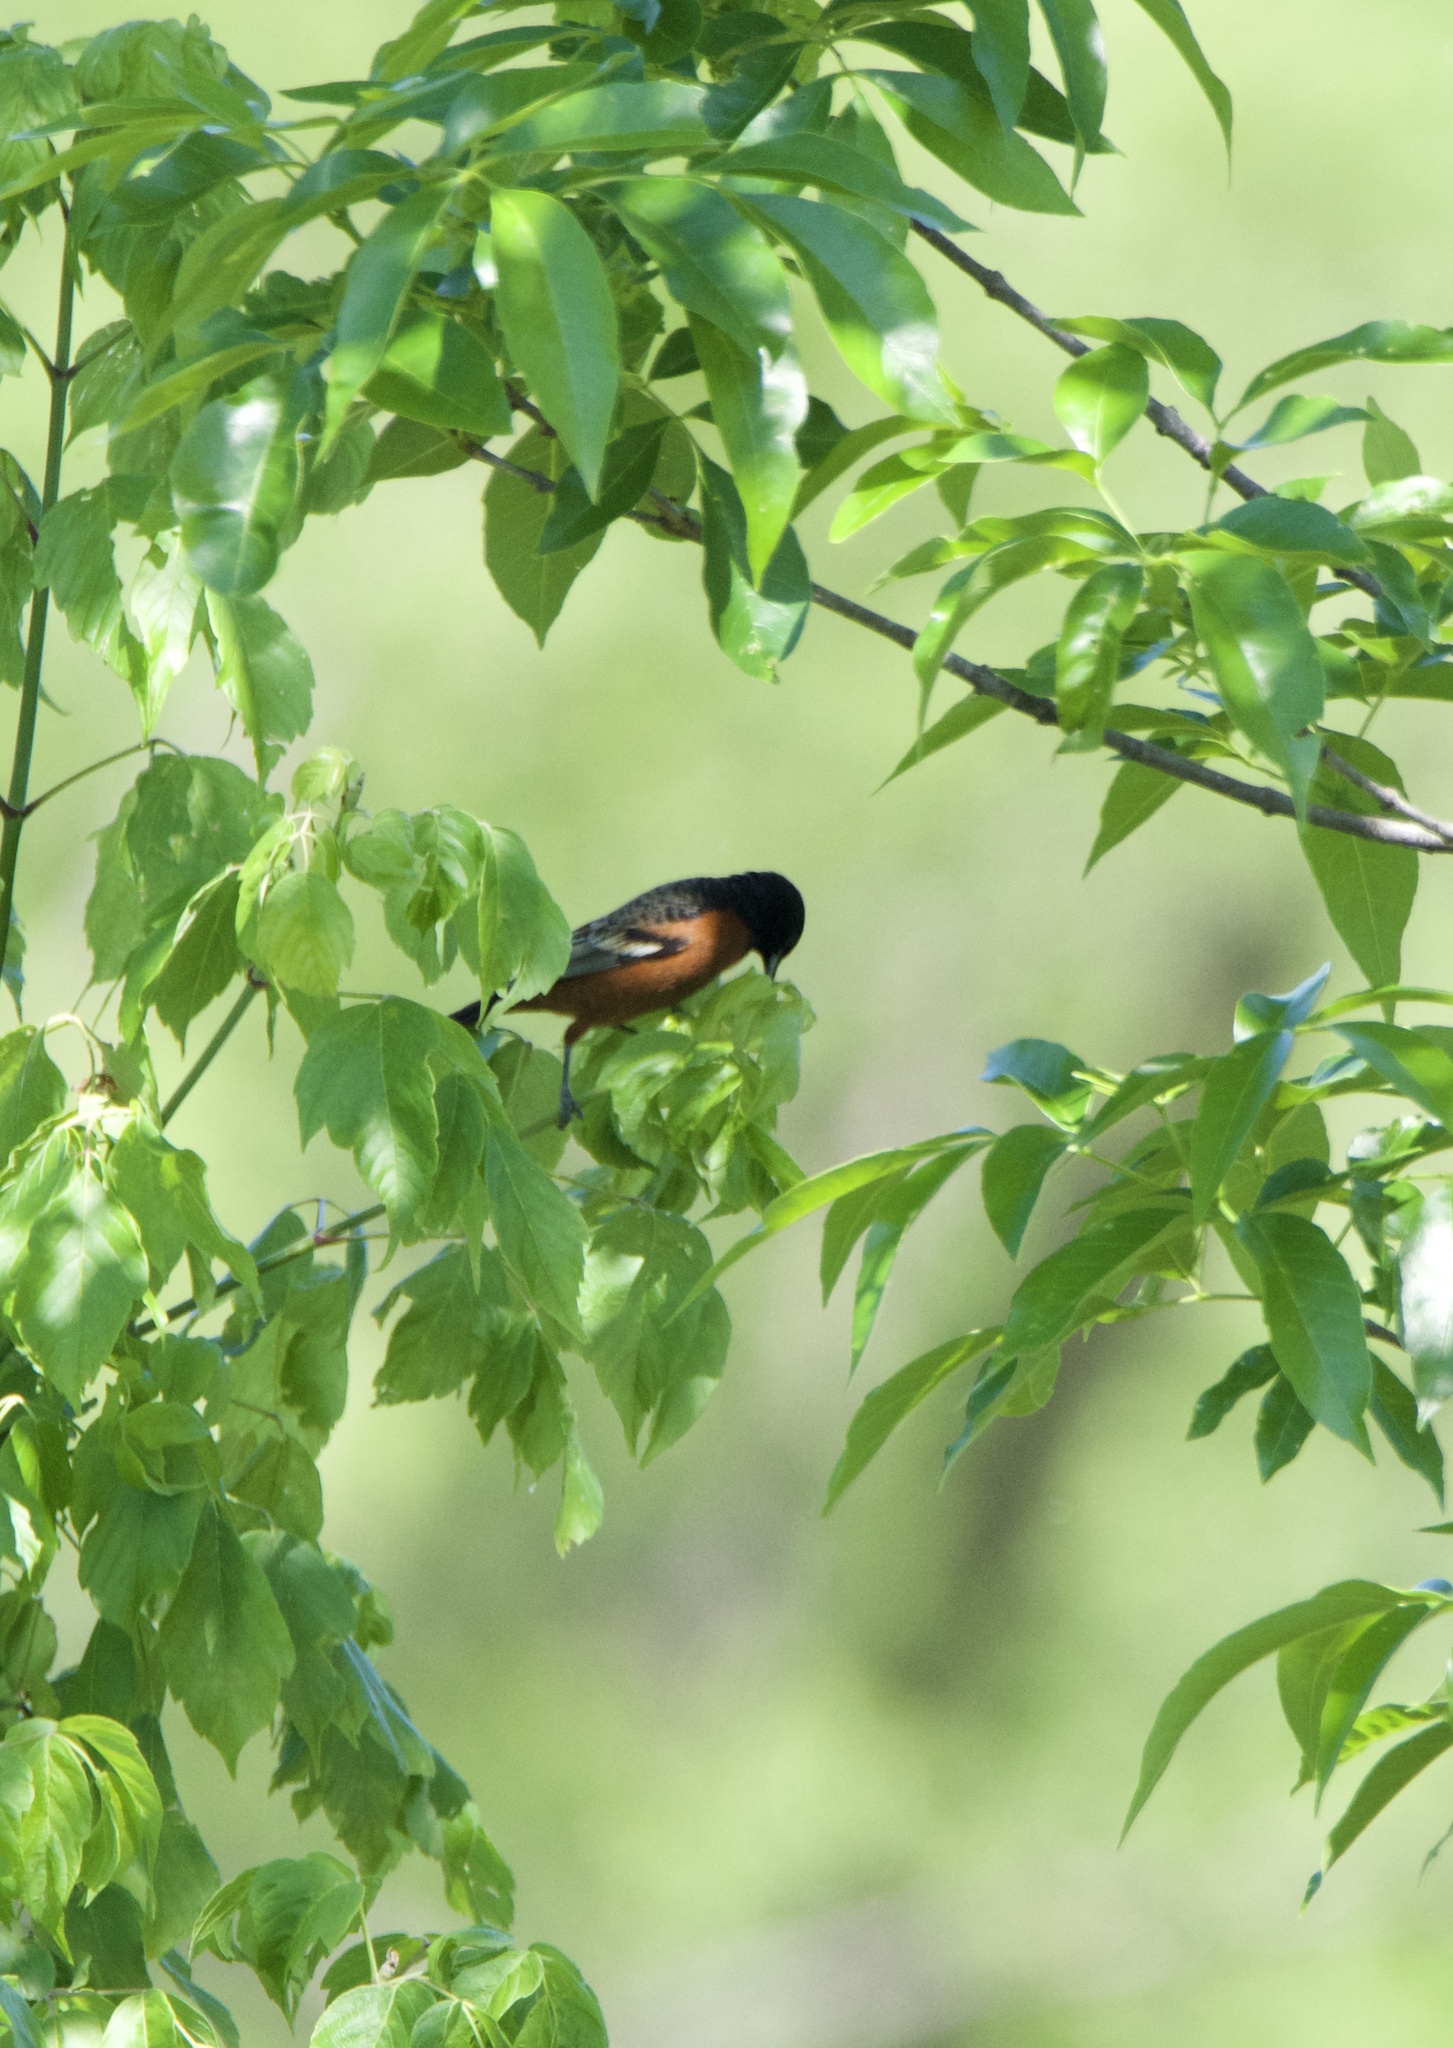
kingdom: Animalia
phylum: Chordata
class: Aves
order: Passeriformes
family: Icteridae
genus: Icterus
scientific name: Icterus spurius
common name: Orchard oriole
